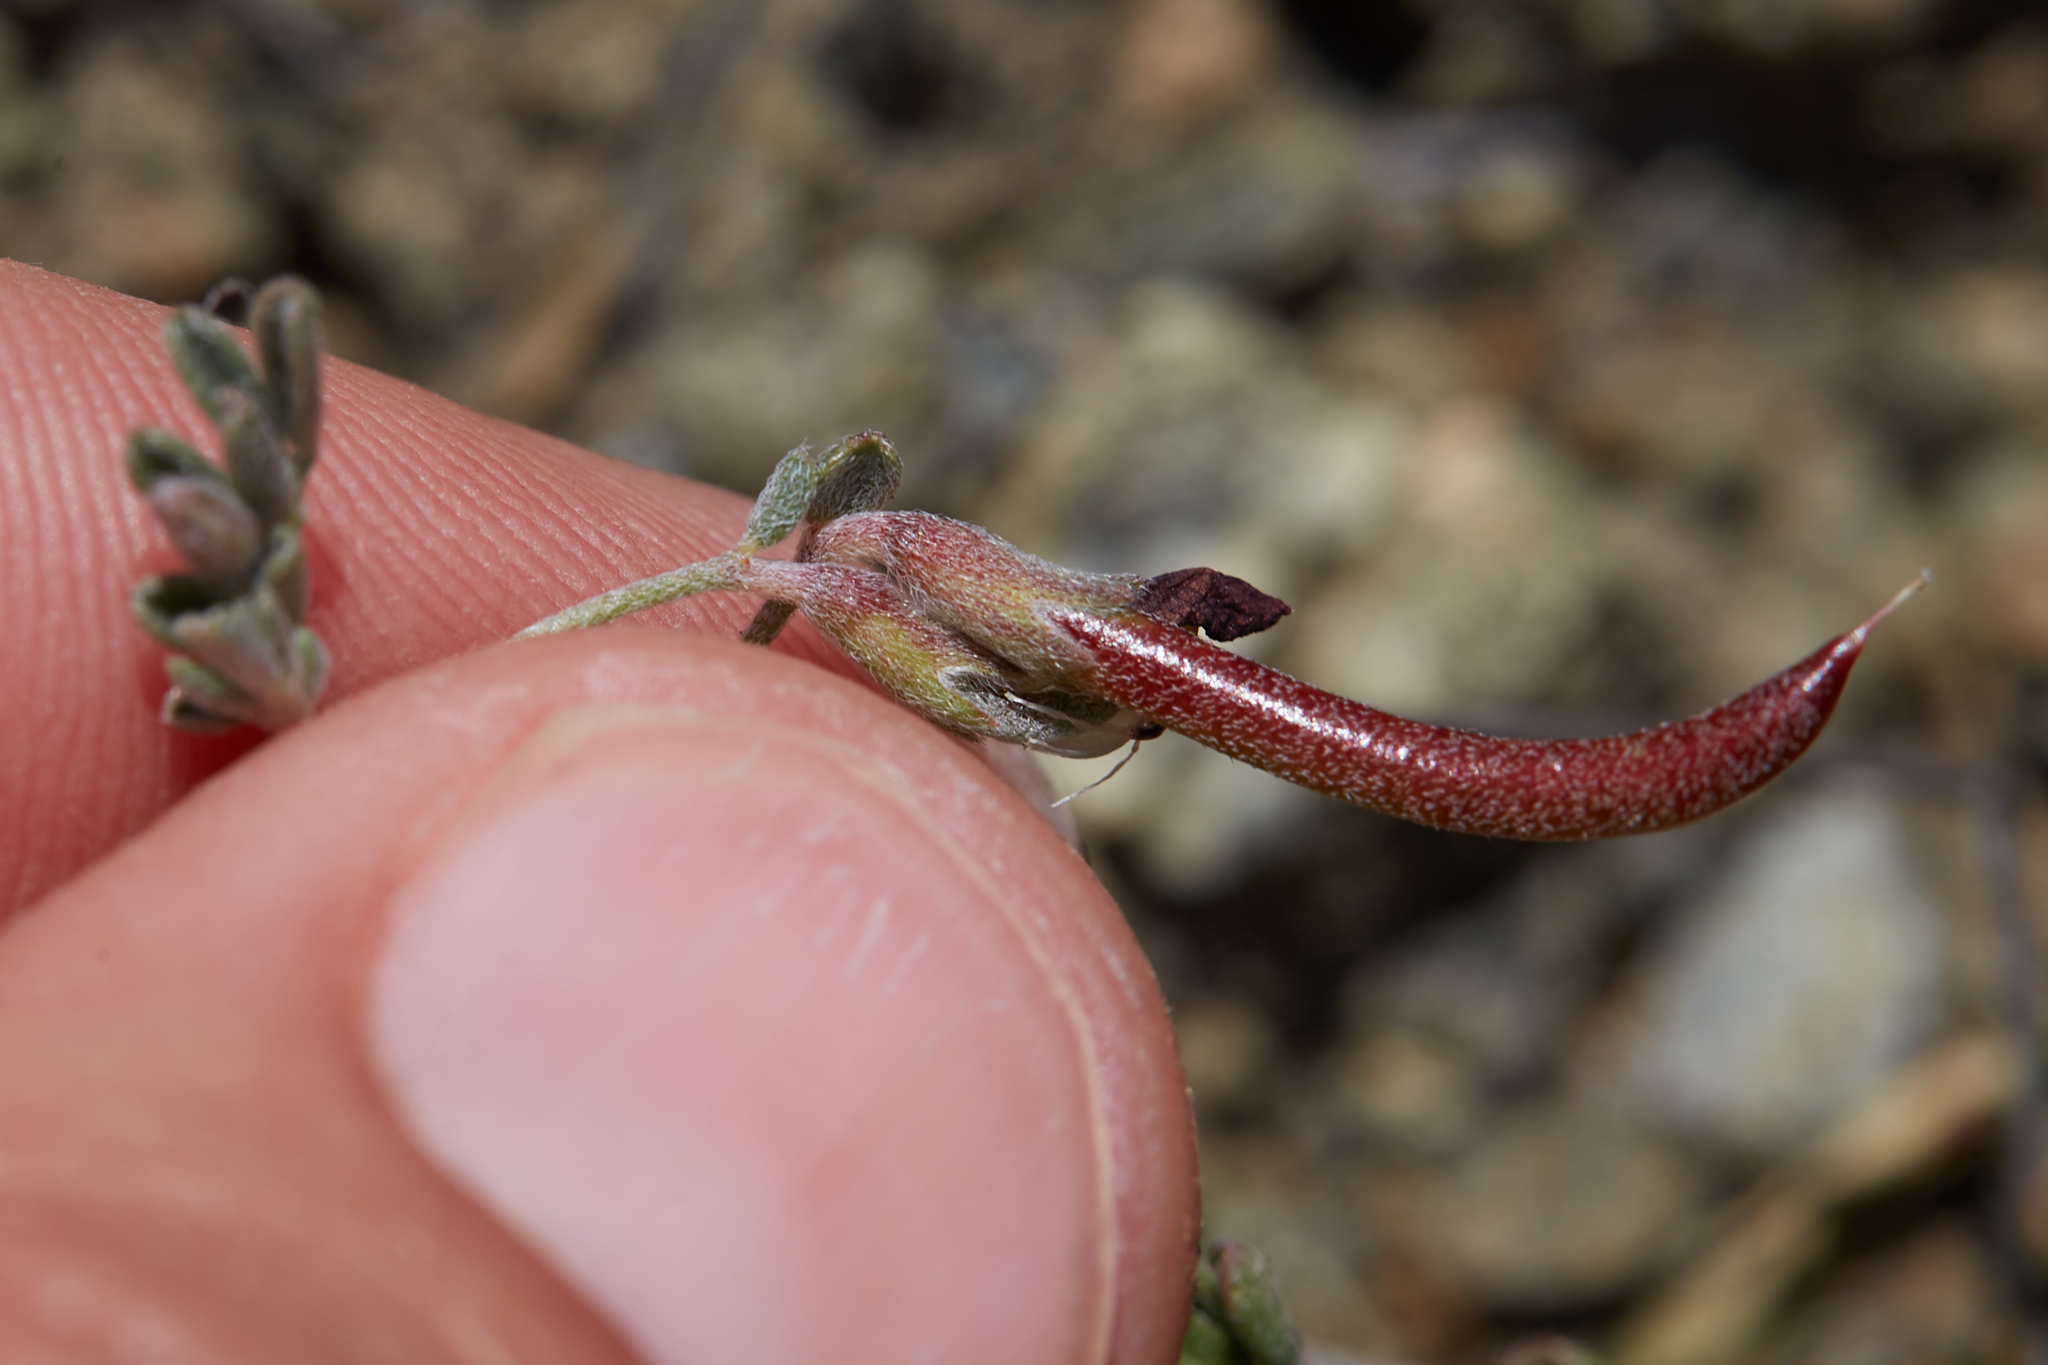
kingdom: Plantae
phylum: Tracheophyta
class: Magnoliopsida
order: Fabales
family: Fabaceae
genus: Acmispon
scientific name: Acmispon strigosus
